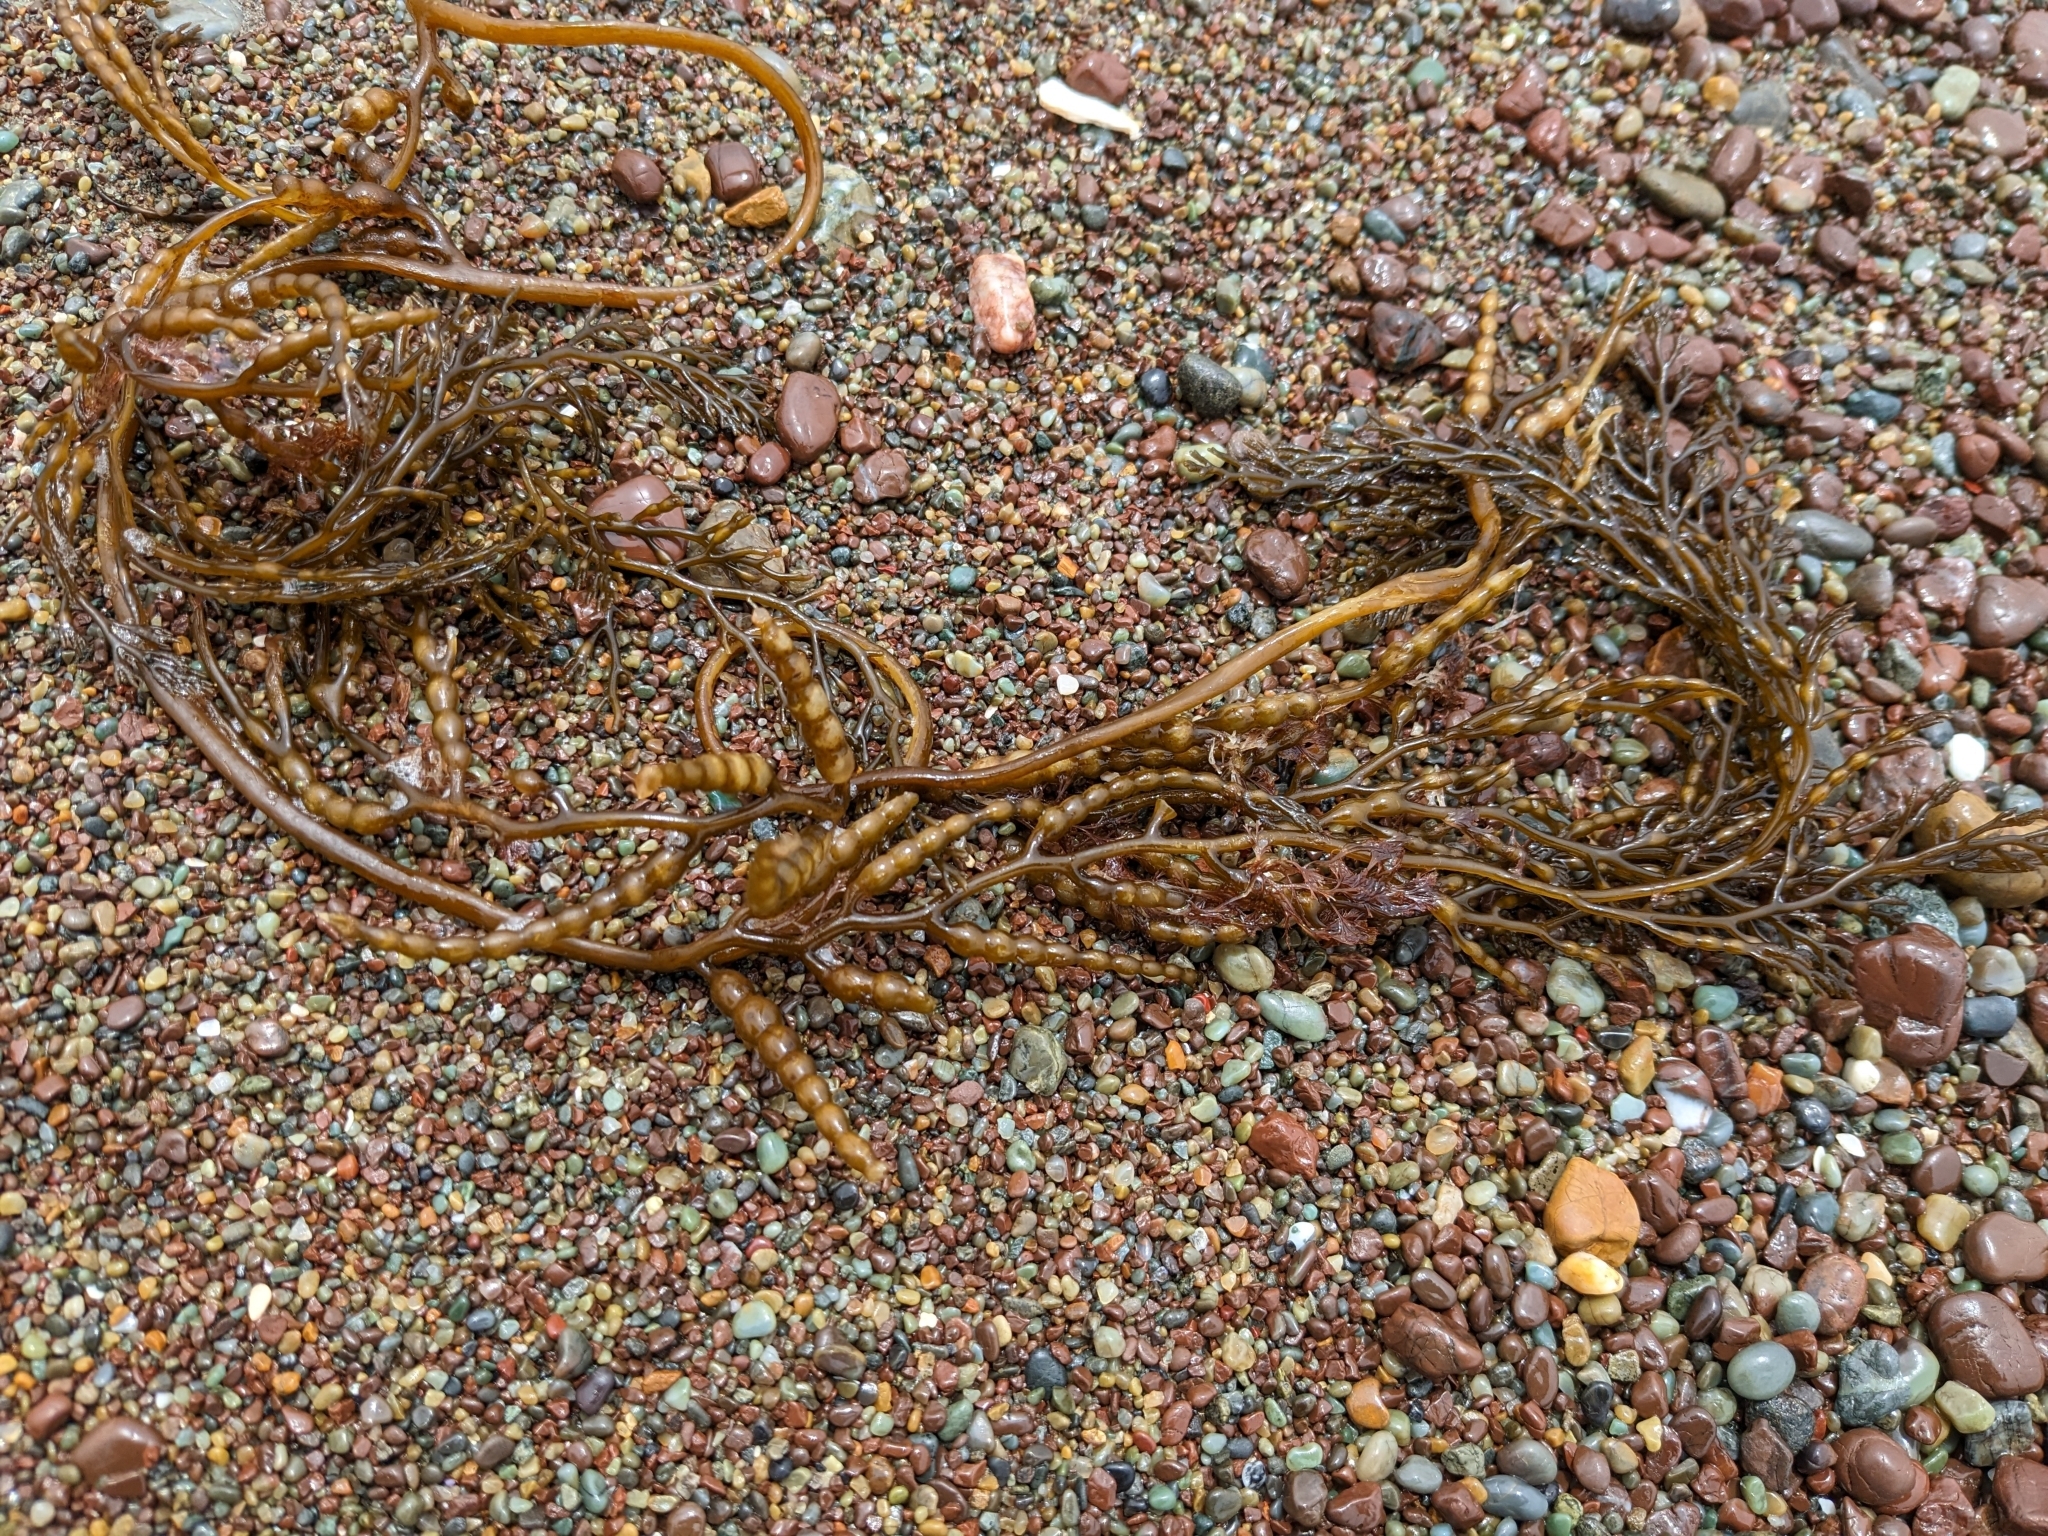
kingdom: Chromista
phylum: Ochrophyta
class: Phaeophyceae
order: Fucales
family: Sargassaceae
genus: Stephanocystis
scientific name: Stephanocystis
